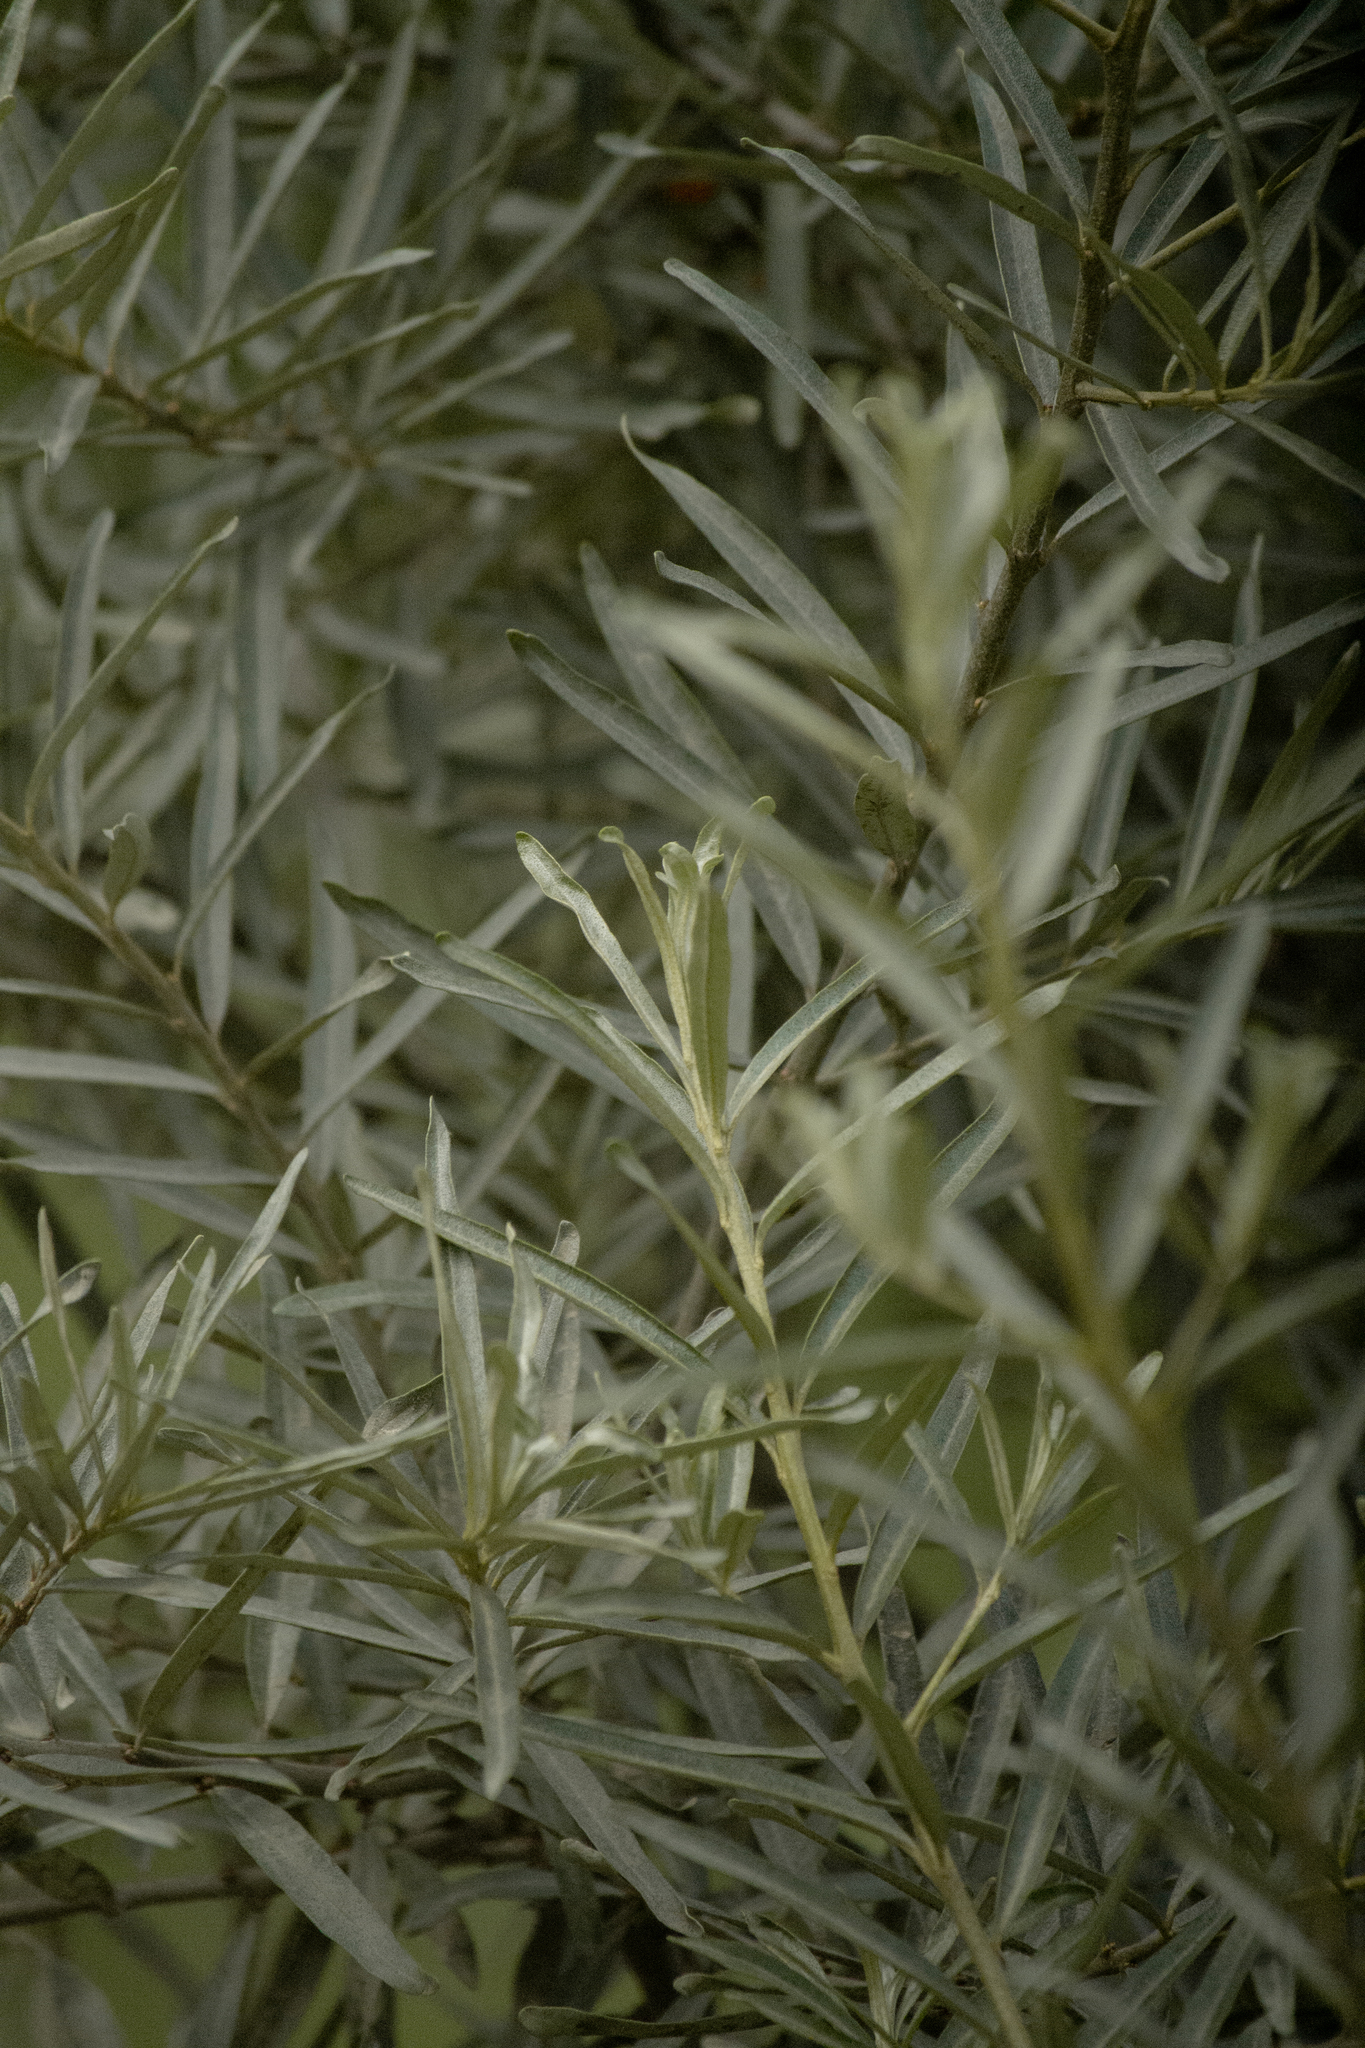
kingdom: Plantae
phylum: Tracheophyta
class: Magnoliopsida
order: Rosales
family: Elaeagnaceae
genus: Hippophae
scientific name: Hippophae rhamnoides
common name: Sea-buckthorn
